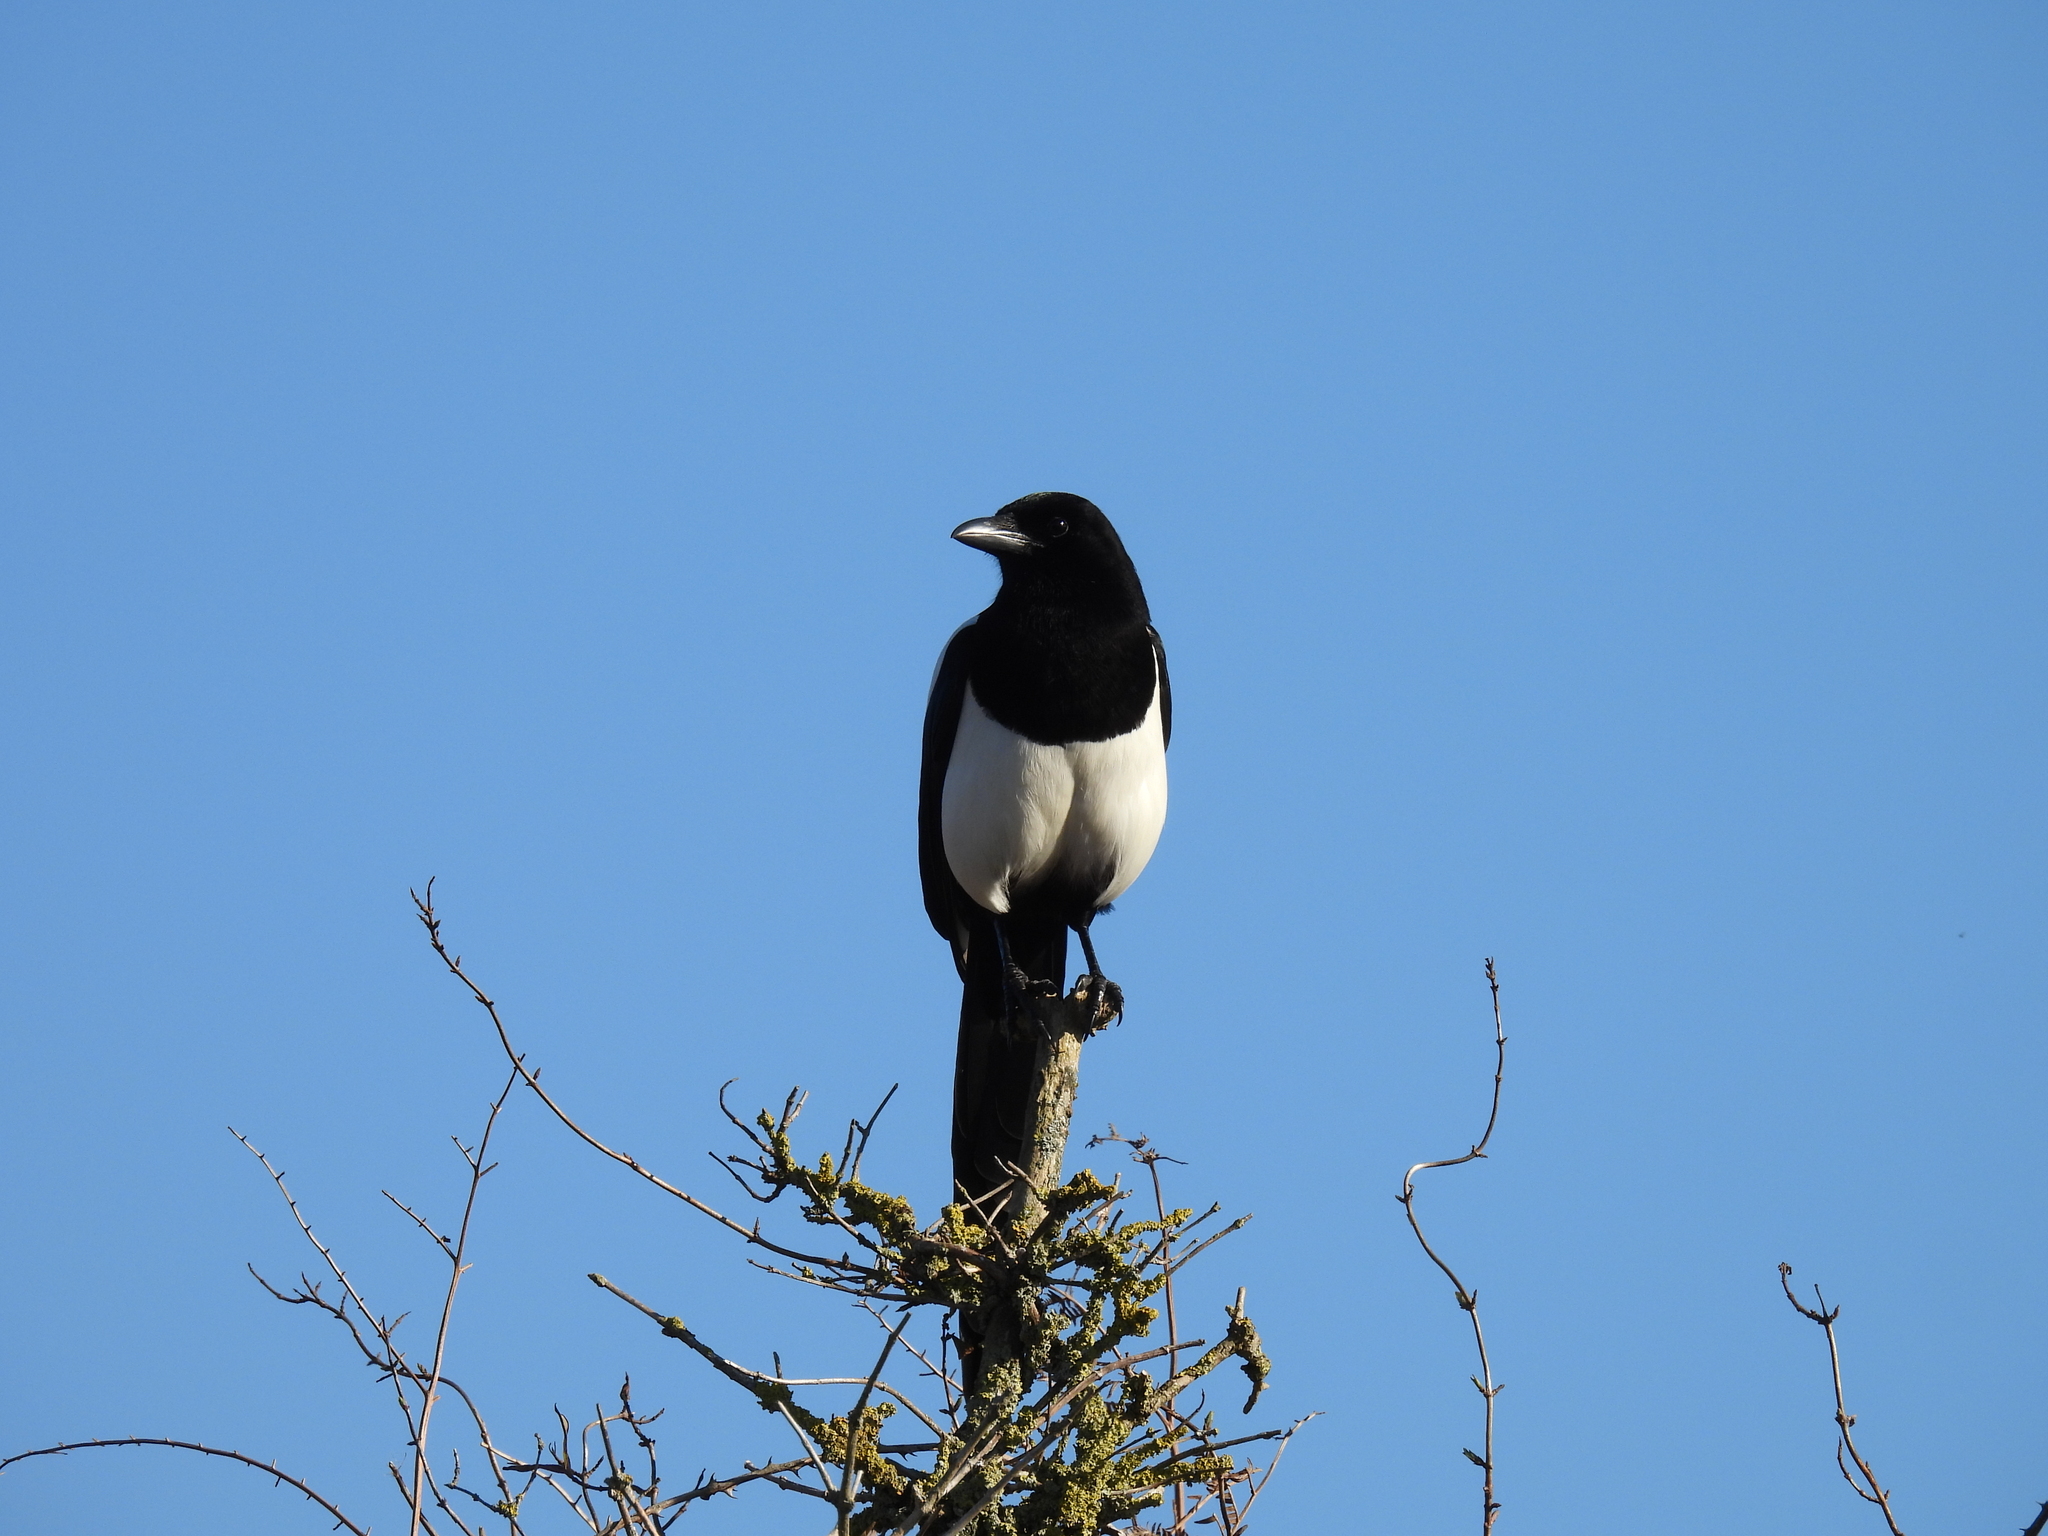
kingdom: Animalia
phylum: Chordata
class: Aves
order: Passeriformes
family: Corvidae
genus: Pica
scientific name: Pica pica
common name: Eurasian magpie
